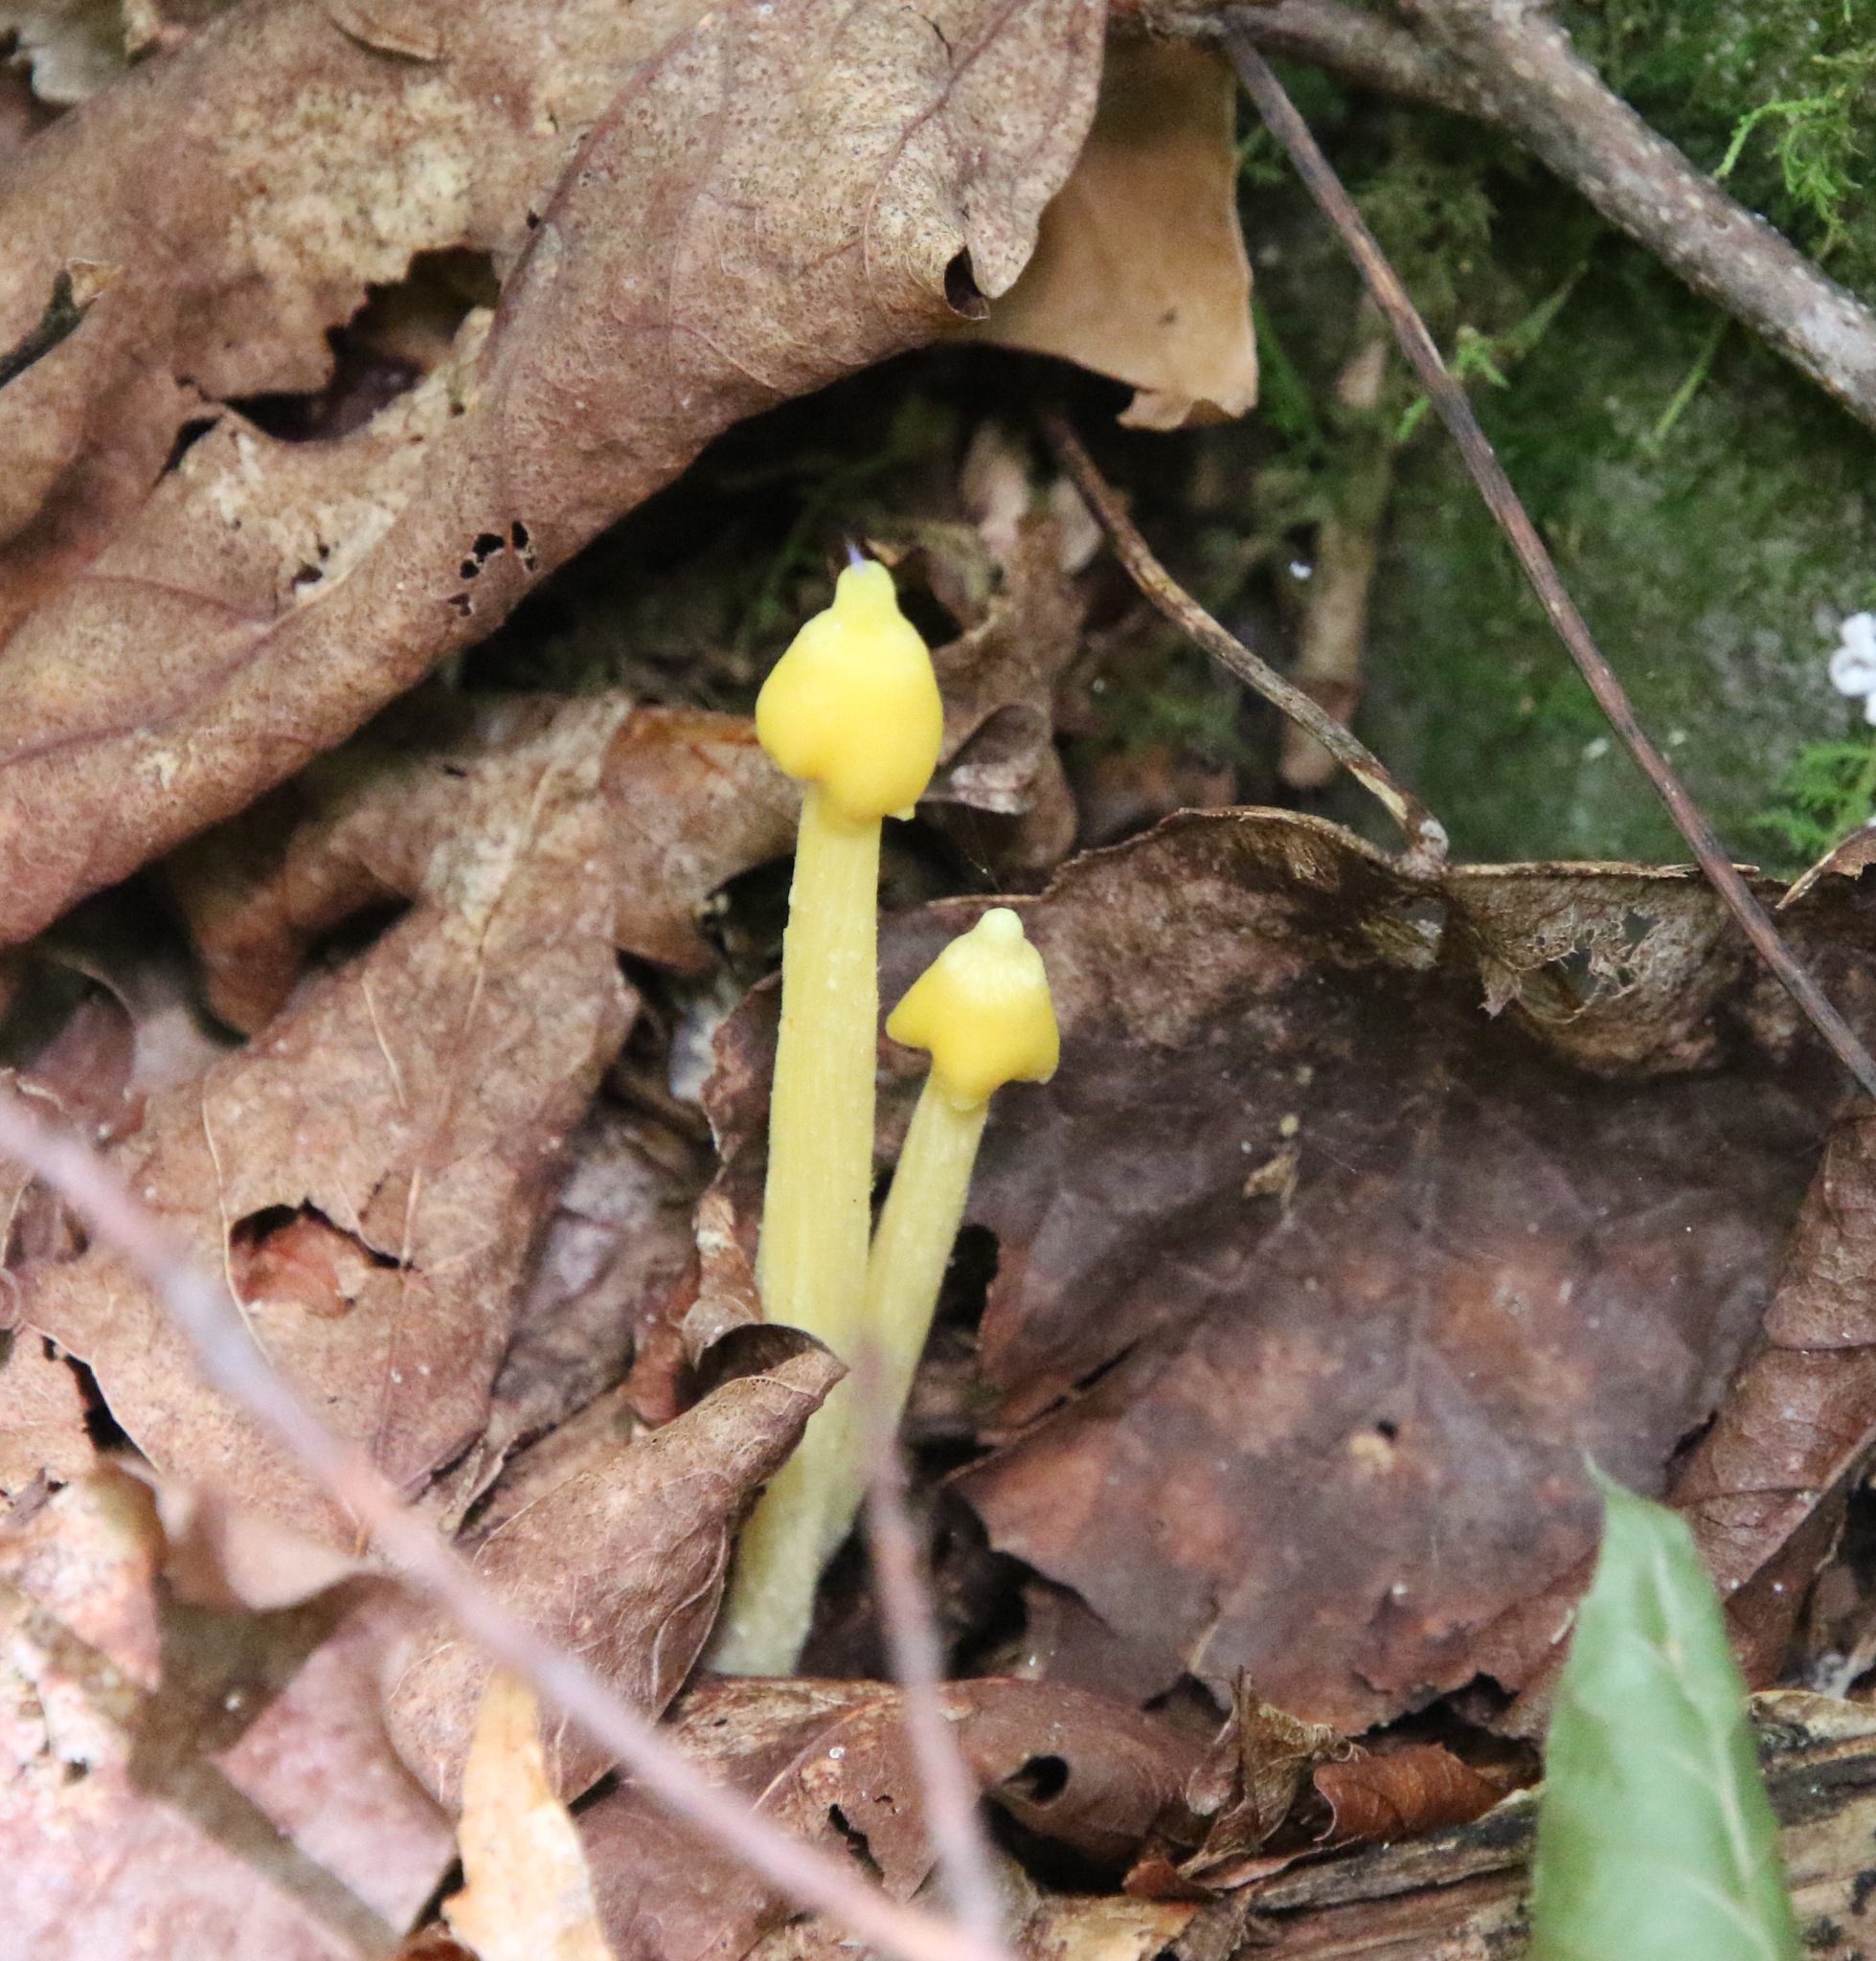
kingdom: Fungi
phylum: Basidiomycota
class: Agaricomycetes
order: Agaricales
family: Entolomataceae
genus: Entoloma
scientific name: Entoloma murrayi
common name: Yellow unicorn entoloma
